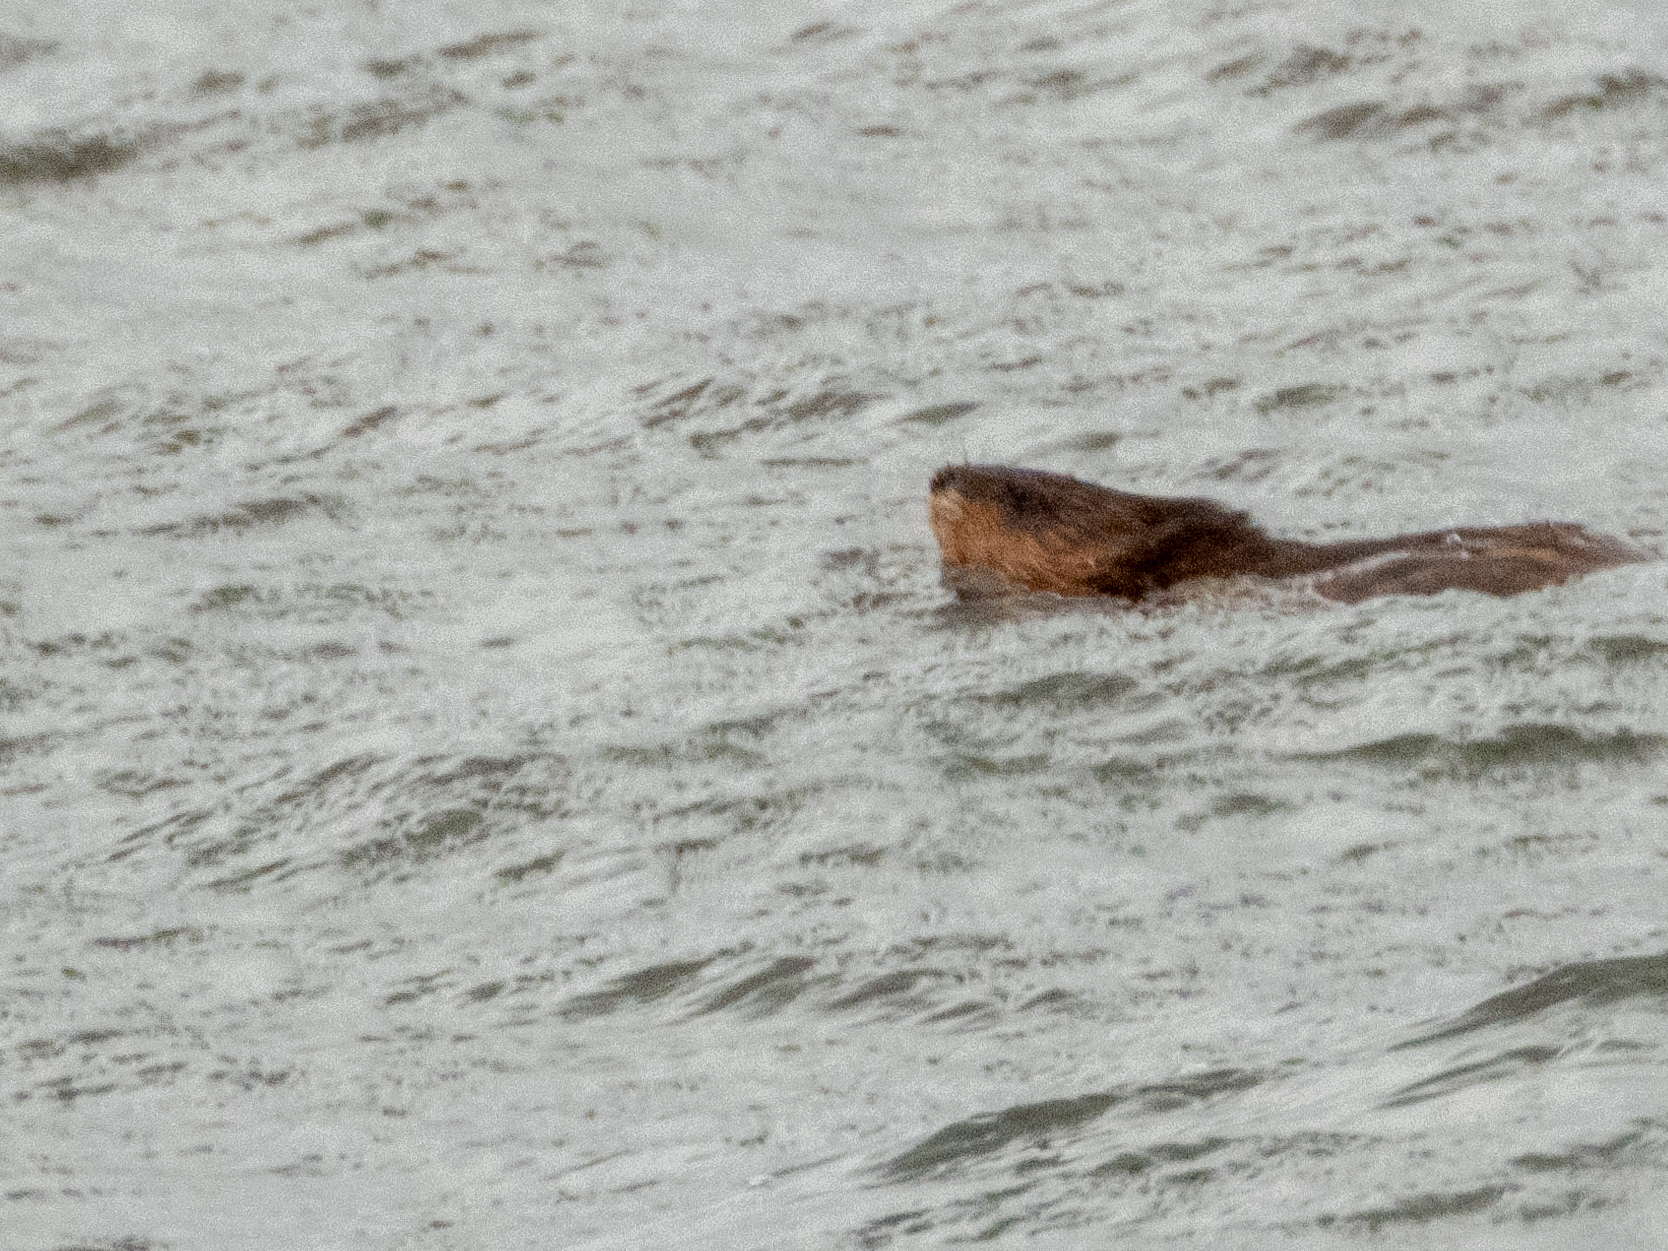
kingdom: Animalia
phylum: Chordata
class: Mammalia
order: Rodentia
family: Cricetidae
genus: Ondatra
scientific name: Ondatra zibethicus
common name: Muskrat
